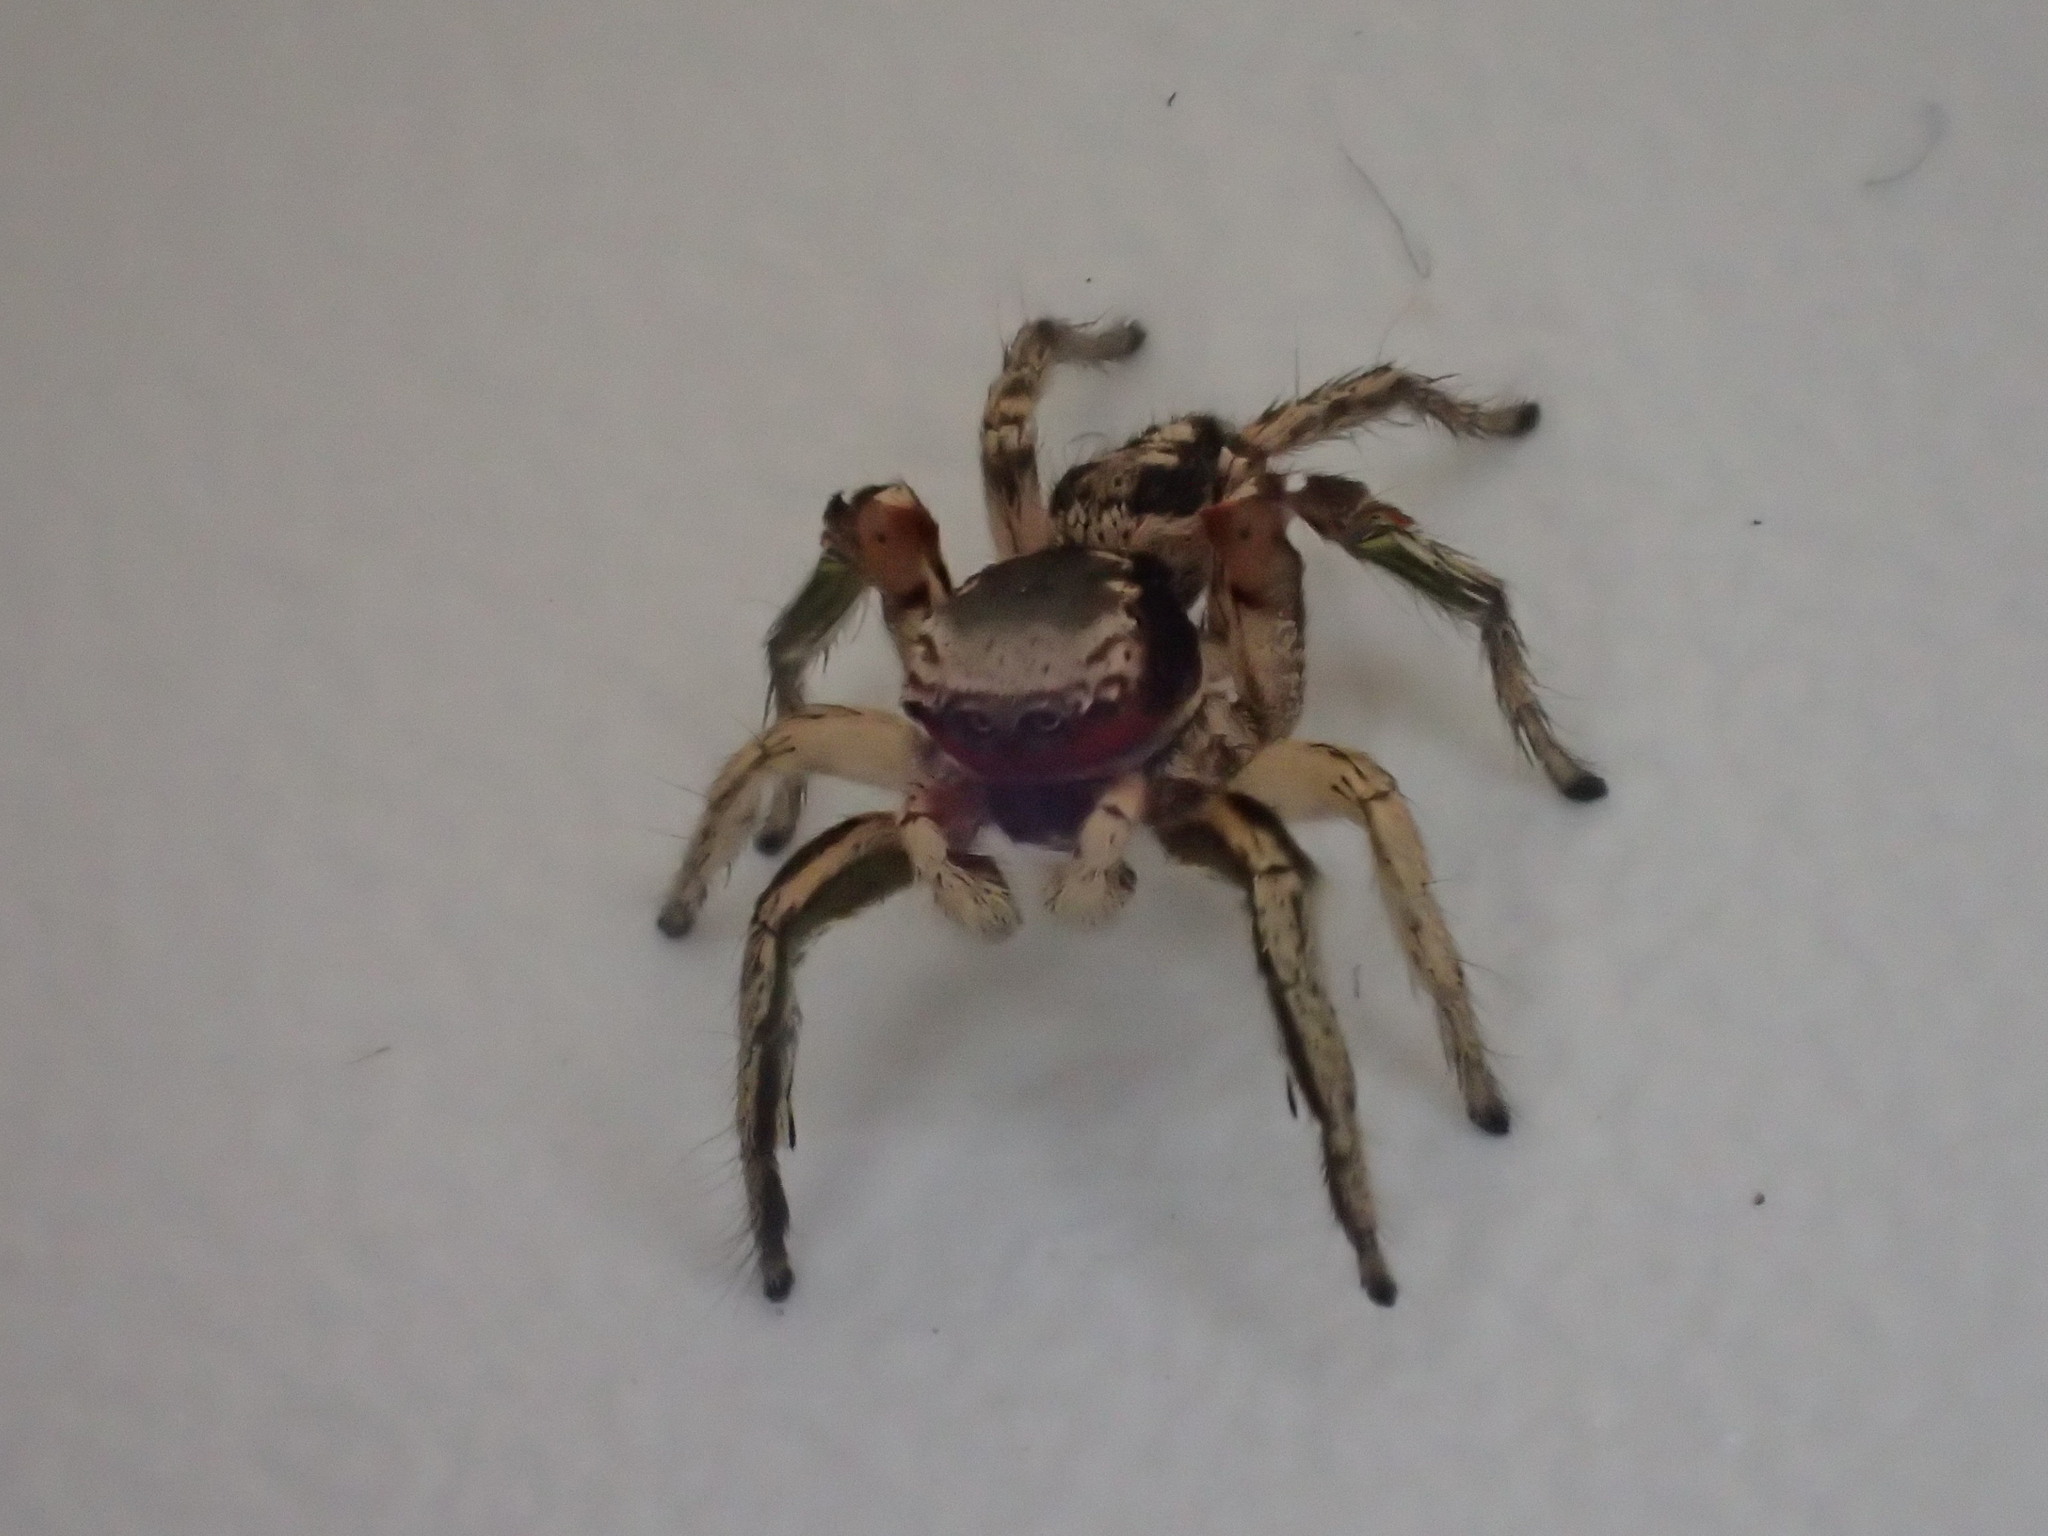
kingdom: Animalia
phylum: Arthropoda
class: Arachnida
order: Araneae
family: Salticidae
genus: Habronattus
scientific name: Habronattus pyrrithrix
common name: Jumping spider
